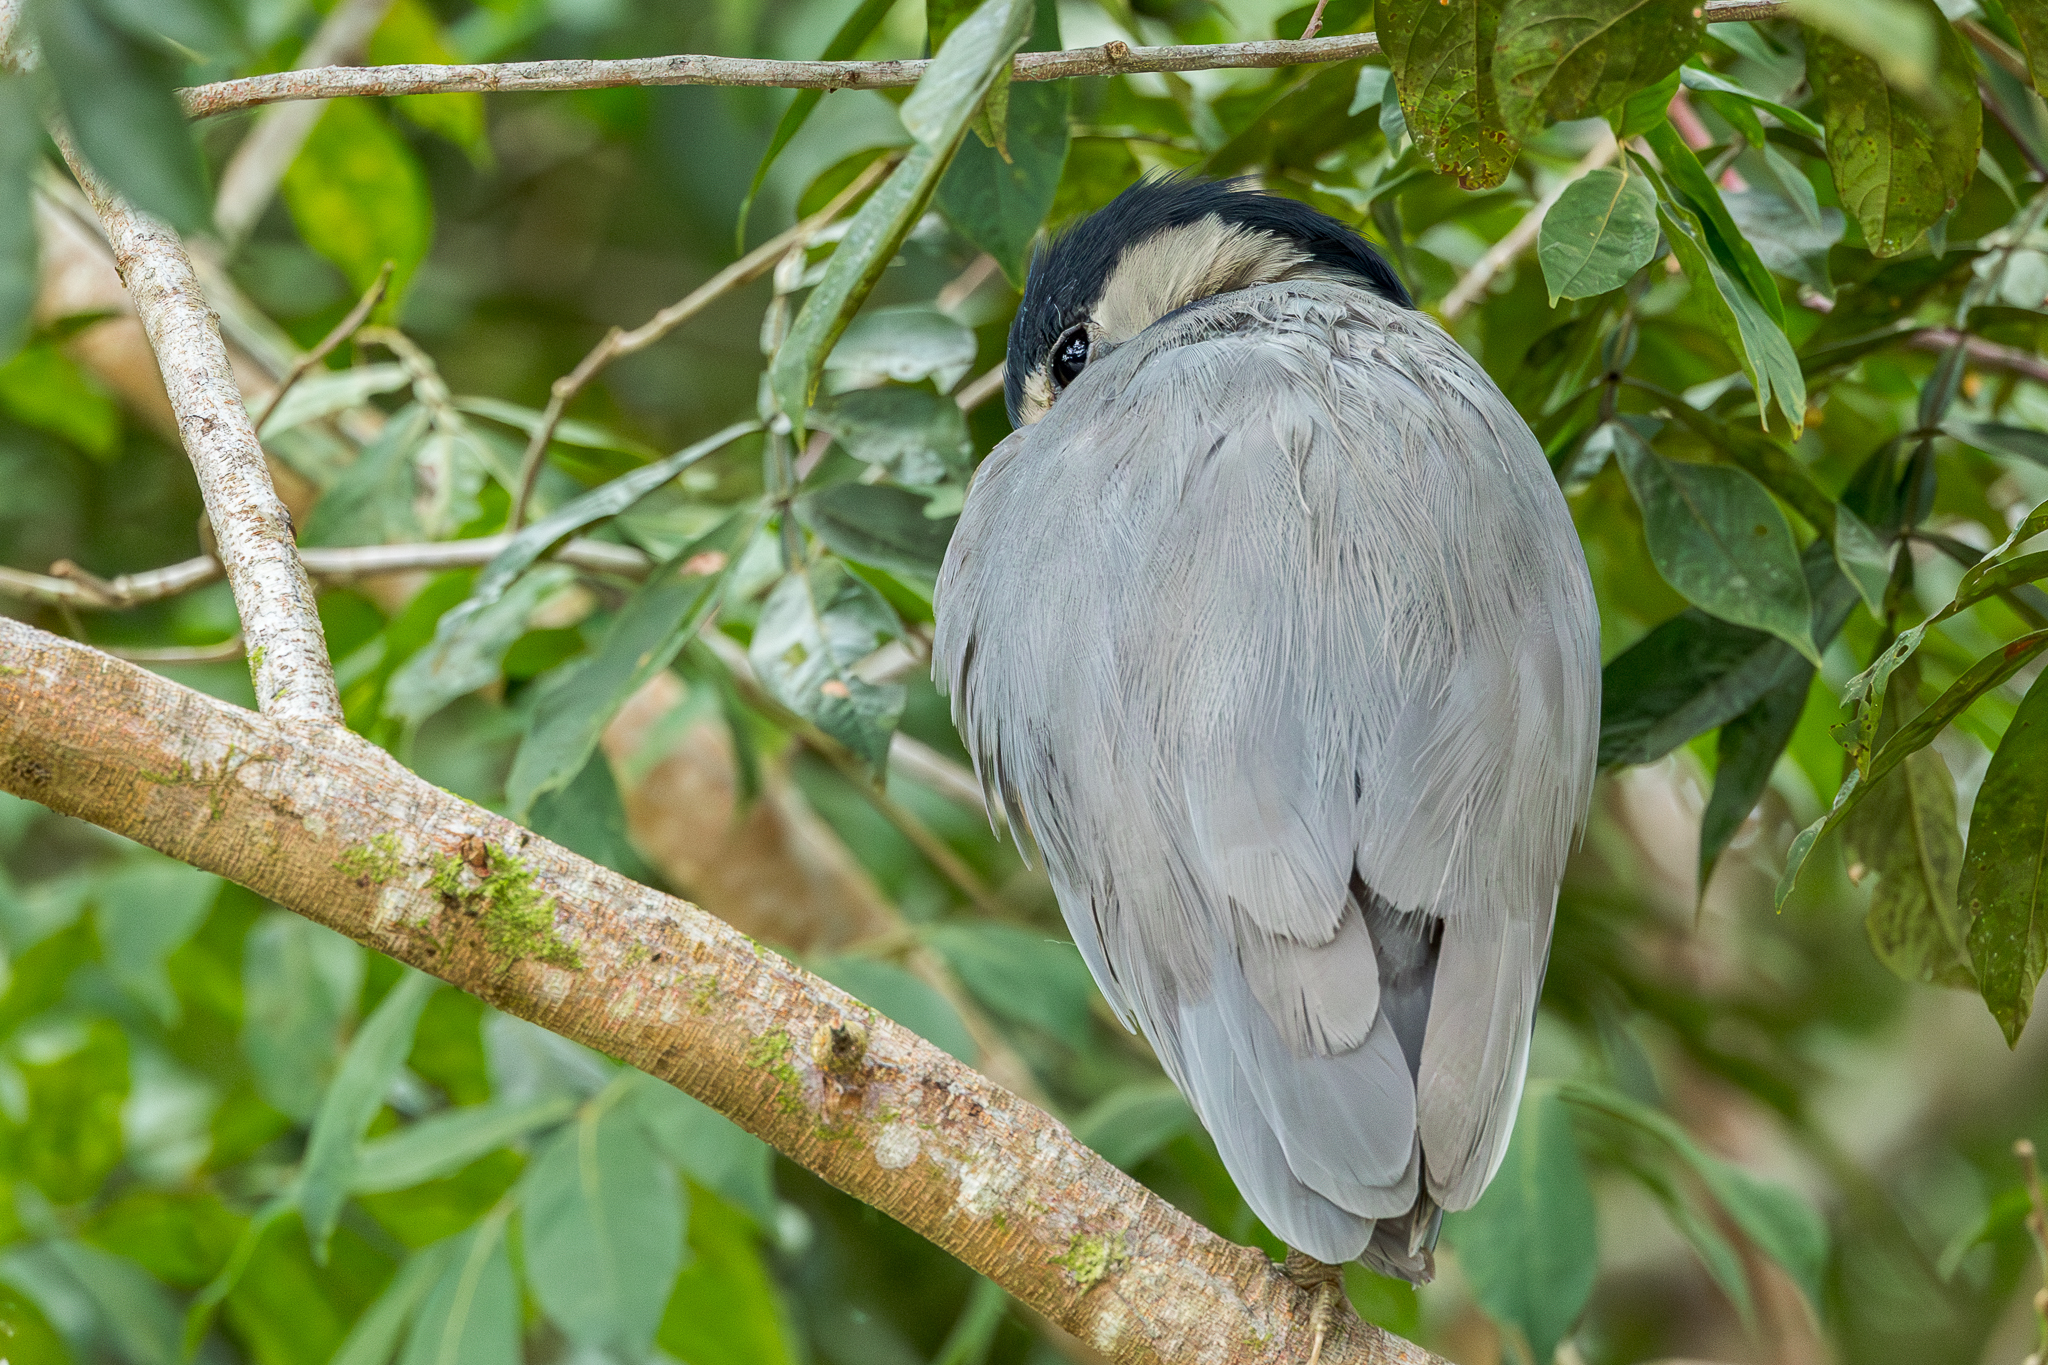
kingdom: Animalia
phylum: Chordata
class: Aves
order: Pelecaniformes
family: Ardeidae
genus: Cochlearius
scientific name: Cochlearius cochlearius
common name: Boat-billed heron
